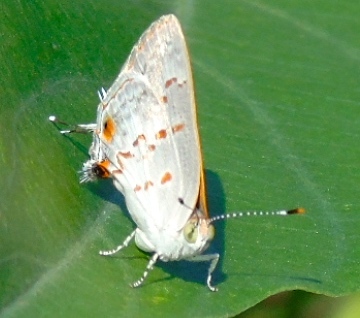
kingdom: Animalia
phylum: Arthropoda
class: Insecta
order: Lepidoptera
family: Lycaenidae
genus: Ministrymon
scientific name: Ministrymon
